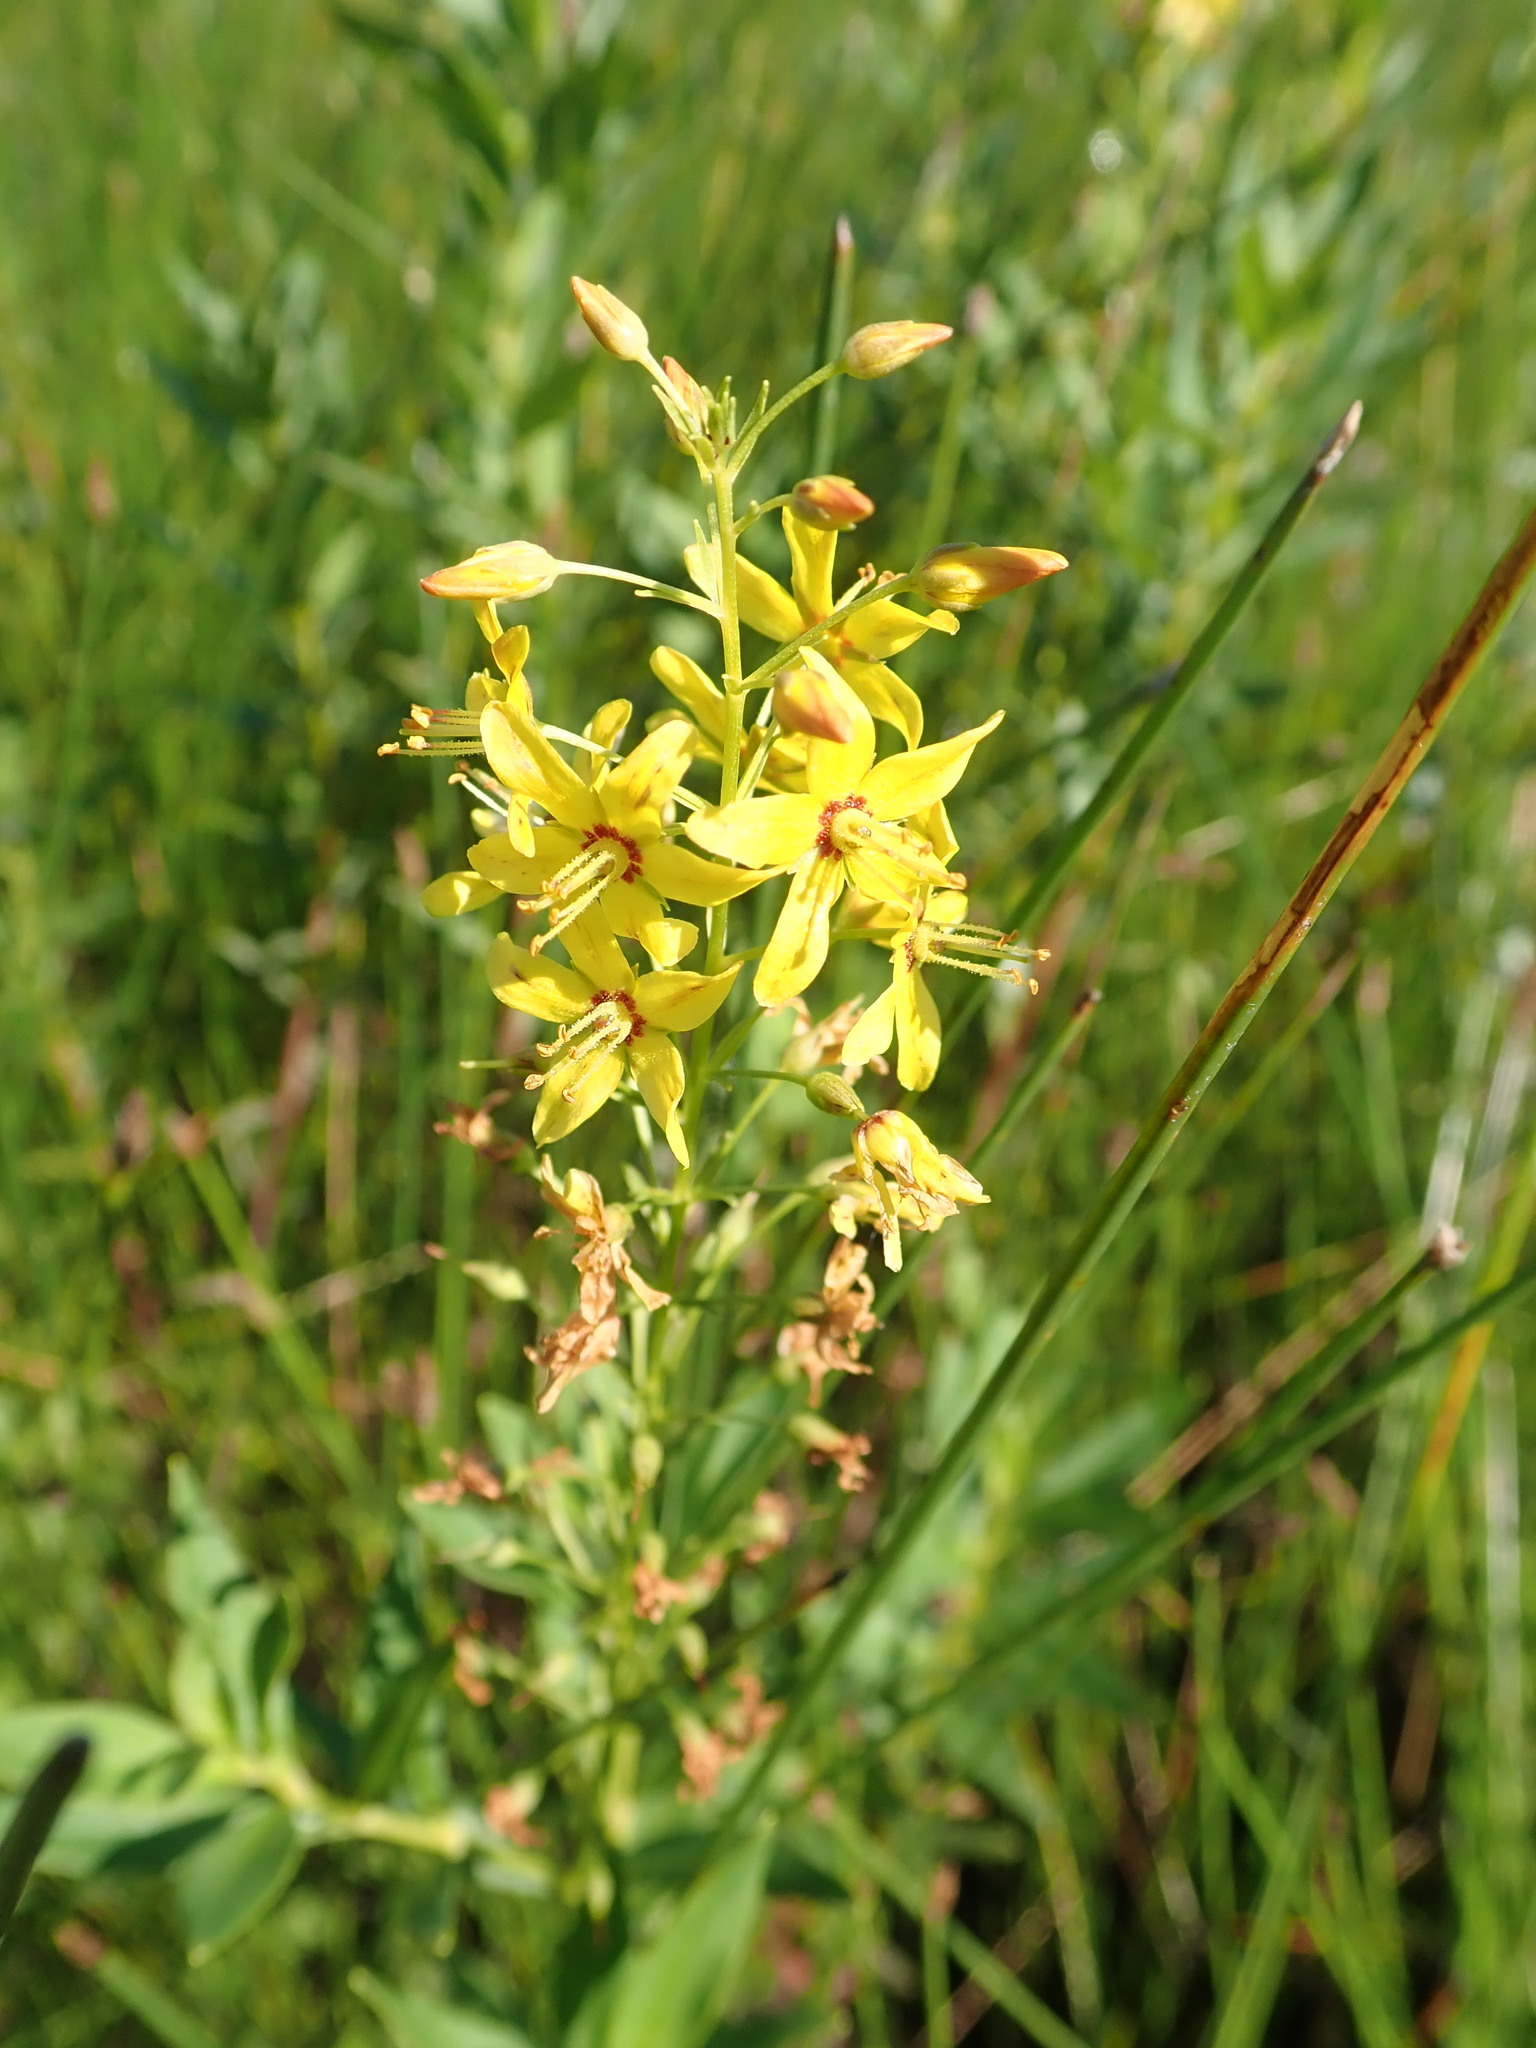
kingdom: Plantae
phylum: Tracheophyta
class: Magnoliopsida
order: Ericales
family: Primulaceae
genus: Lysimachia
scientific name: Lysimachia terrestris
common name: Lake loosestrife
